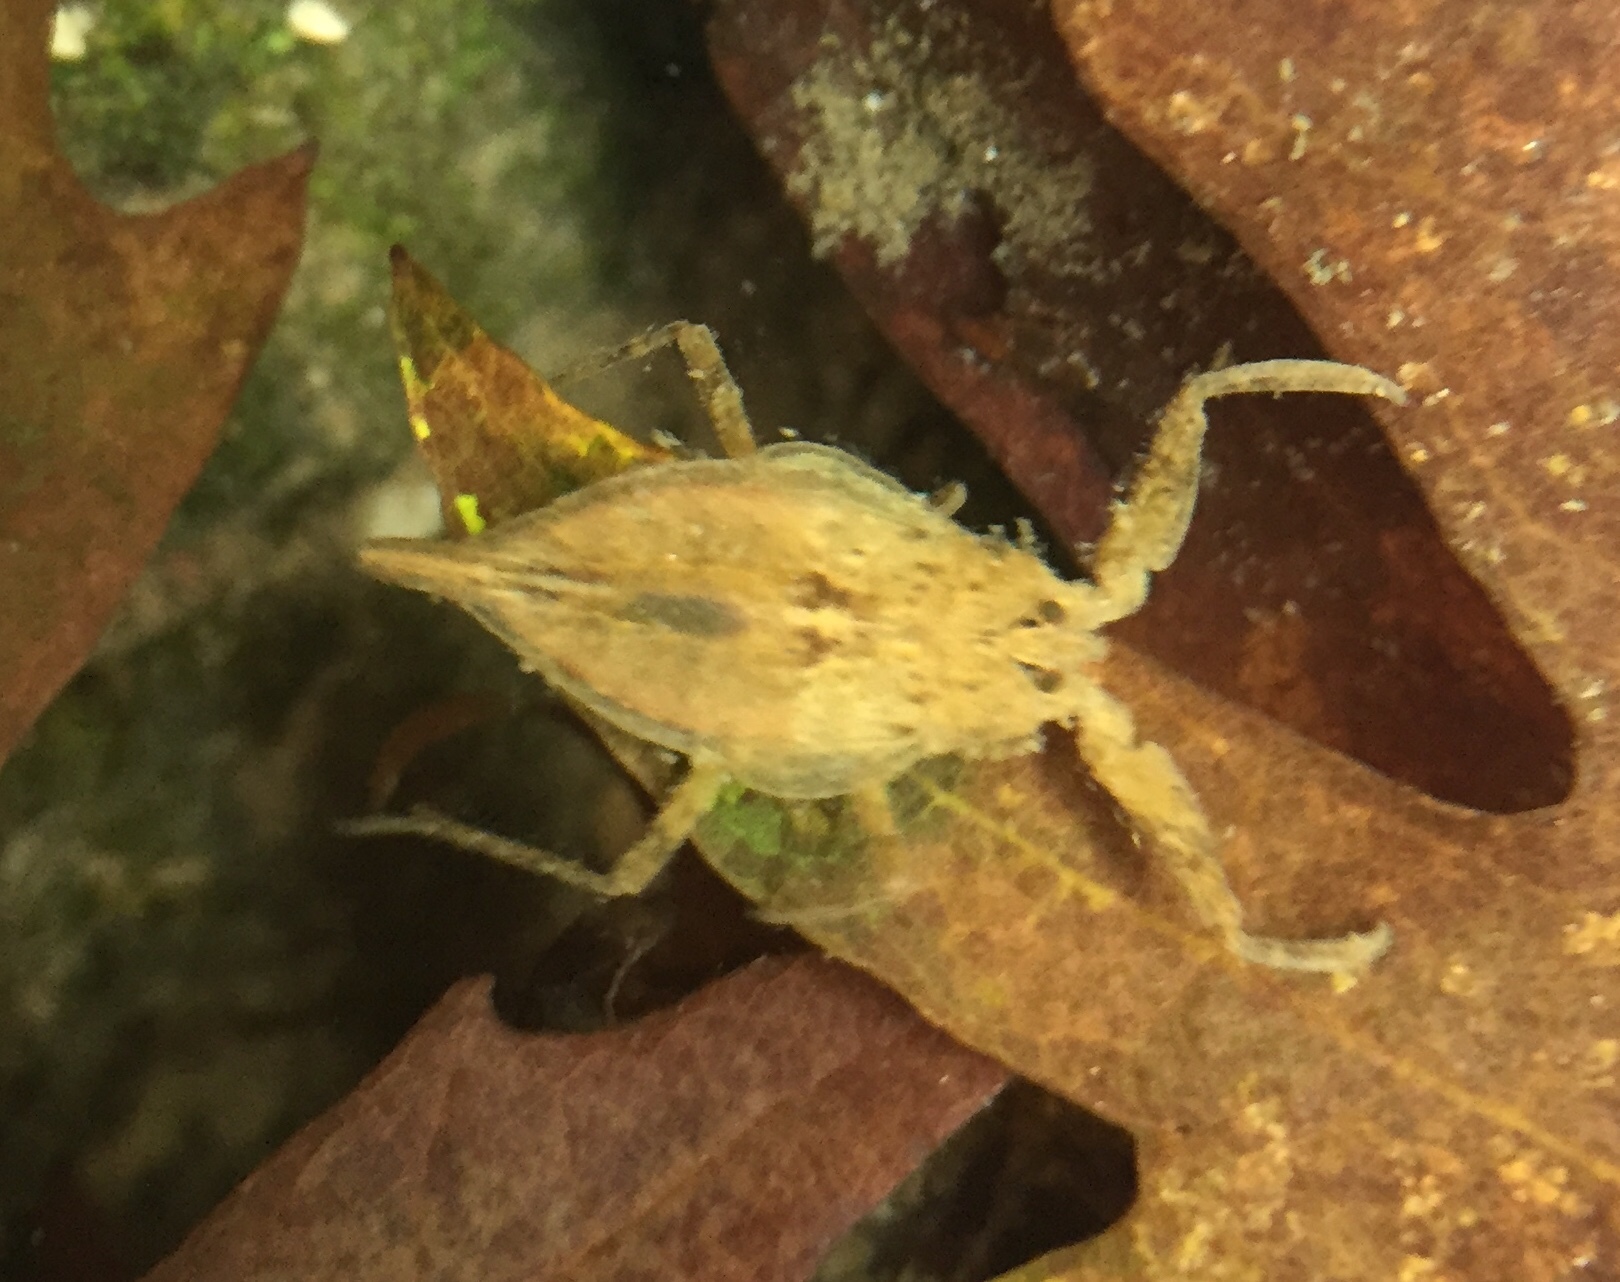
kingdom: Animalia
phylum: Arthropoda
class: Insecta
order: Hemiptera
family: Nepidae
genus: Nepa
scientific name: Nepa cinerea
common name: Water scorpion
